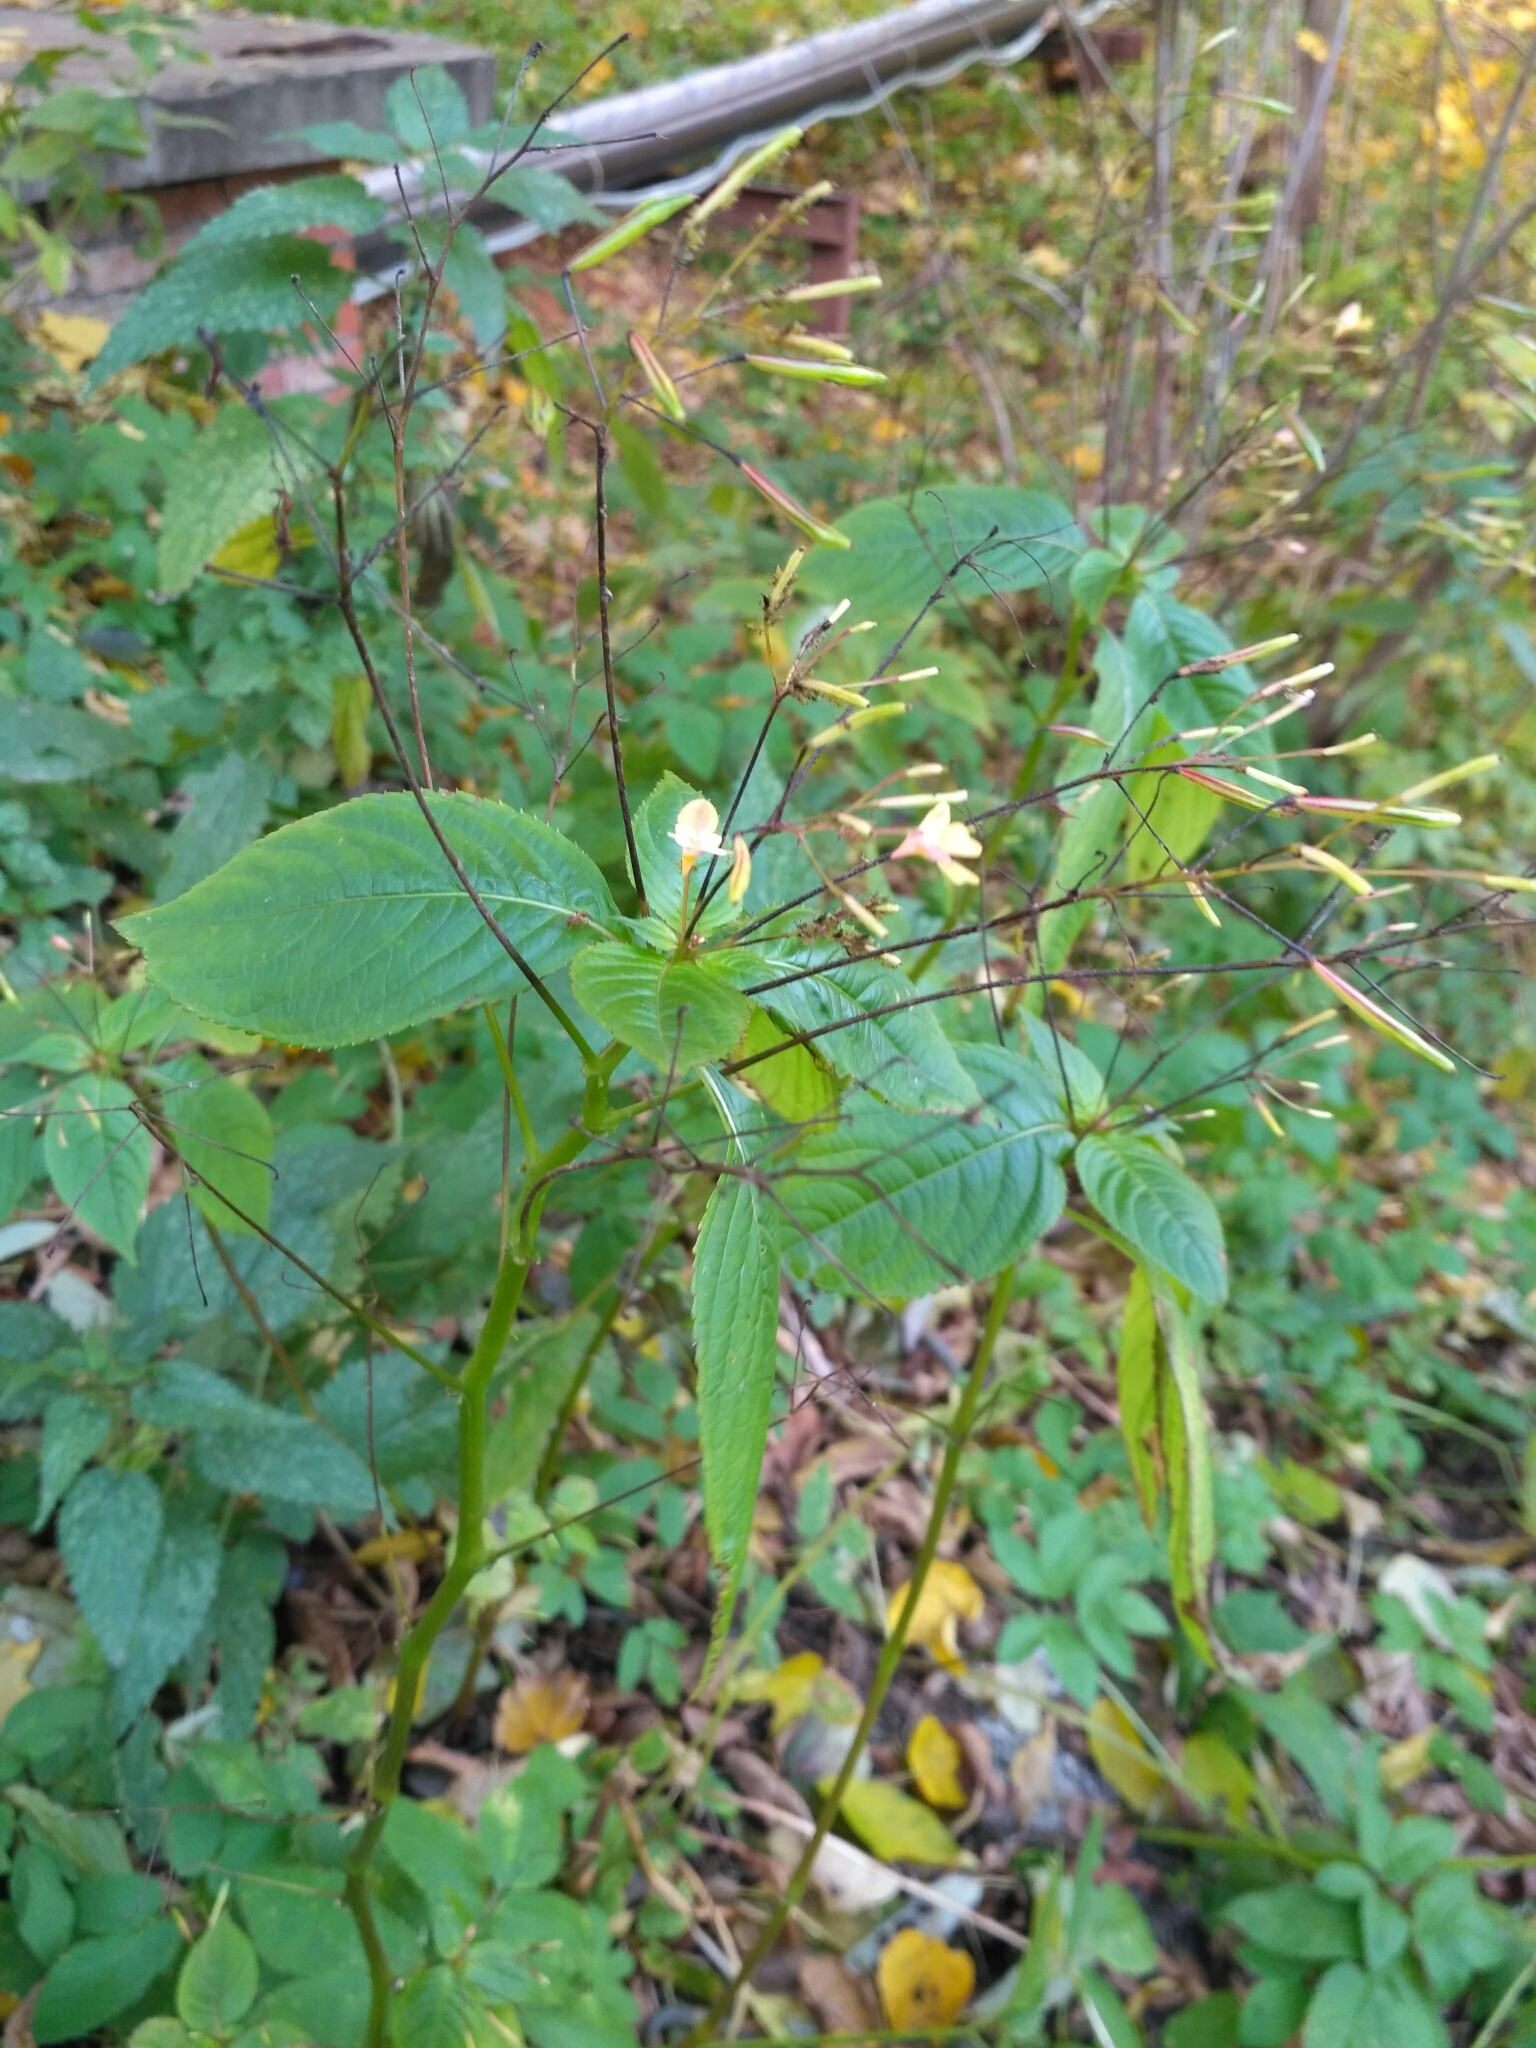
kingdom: Plantae
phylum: Tracheophyta
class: Magnoliopsida
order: Ericales
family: Balsaminaceae
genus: Impatiens
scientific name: Impatiens parviflora
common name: Small balsam
